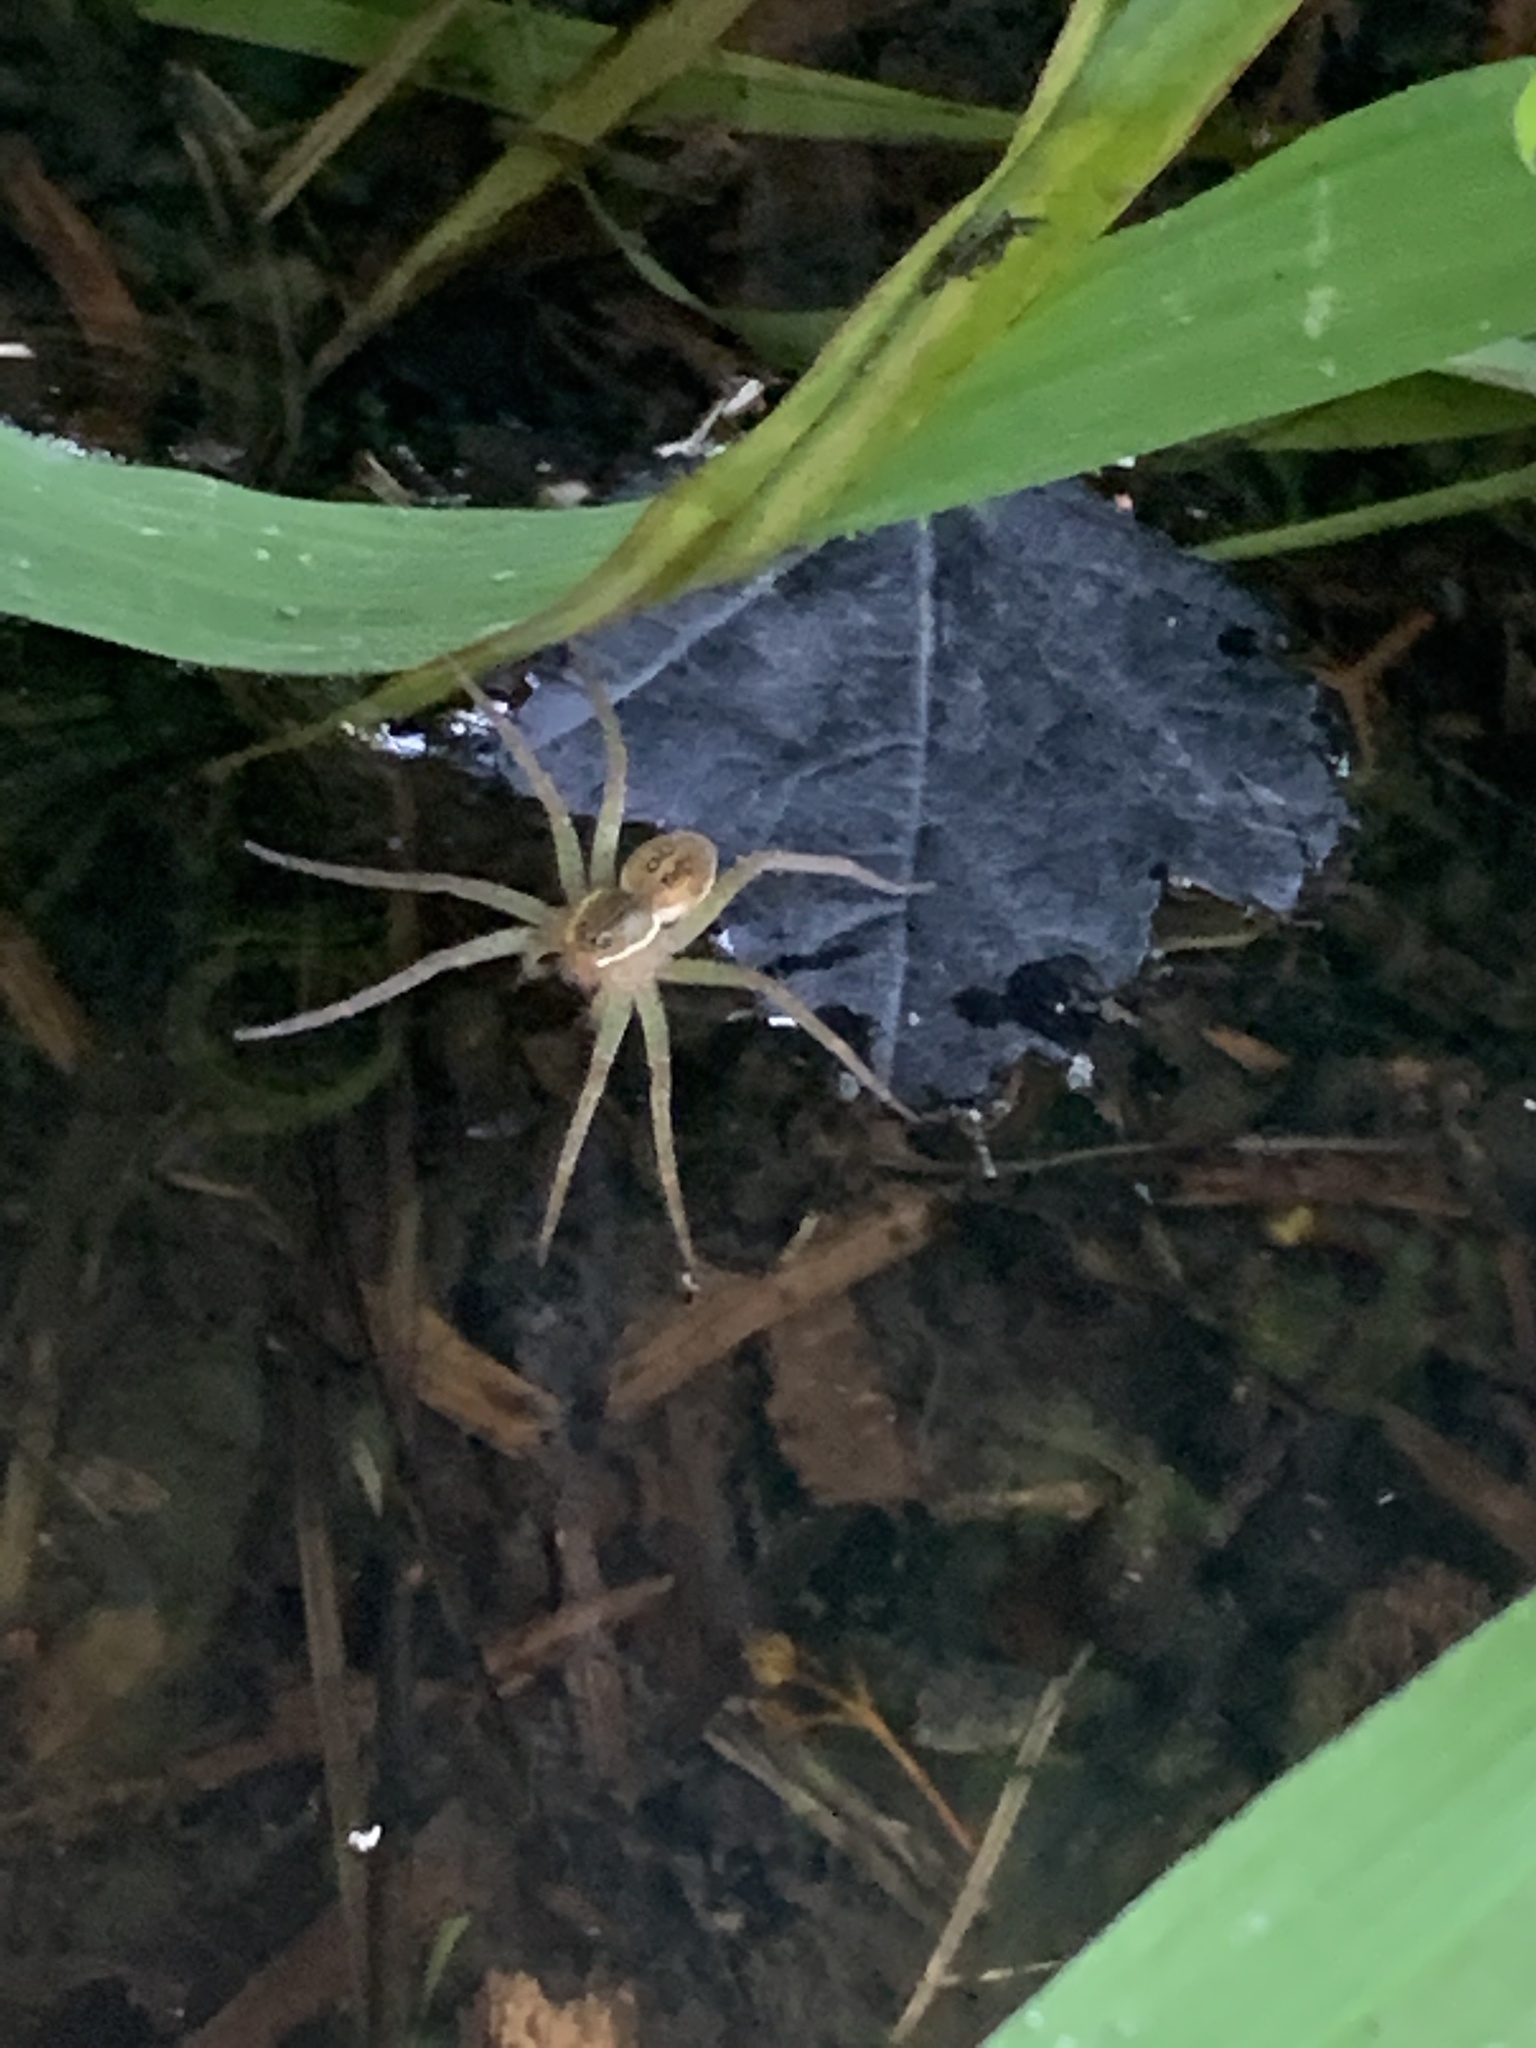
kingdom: Animalia
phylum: Arthropoda
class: Arachnida
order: Araneae
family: Pisauridae
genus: Dolomedes
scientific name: Dolomedes triton
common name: Six-spotted fishing spider
